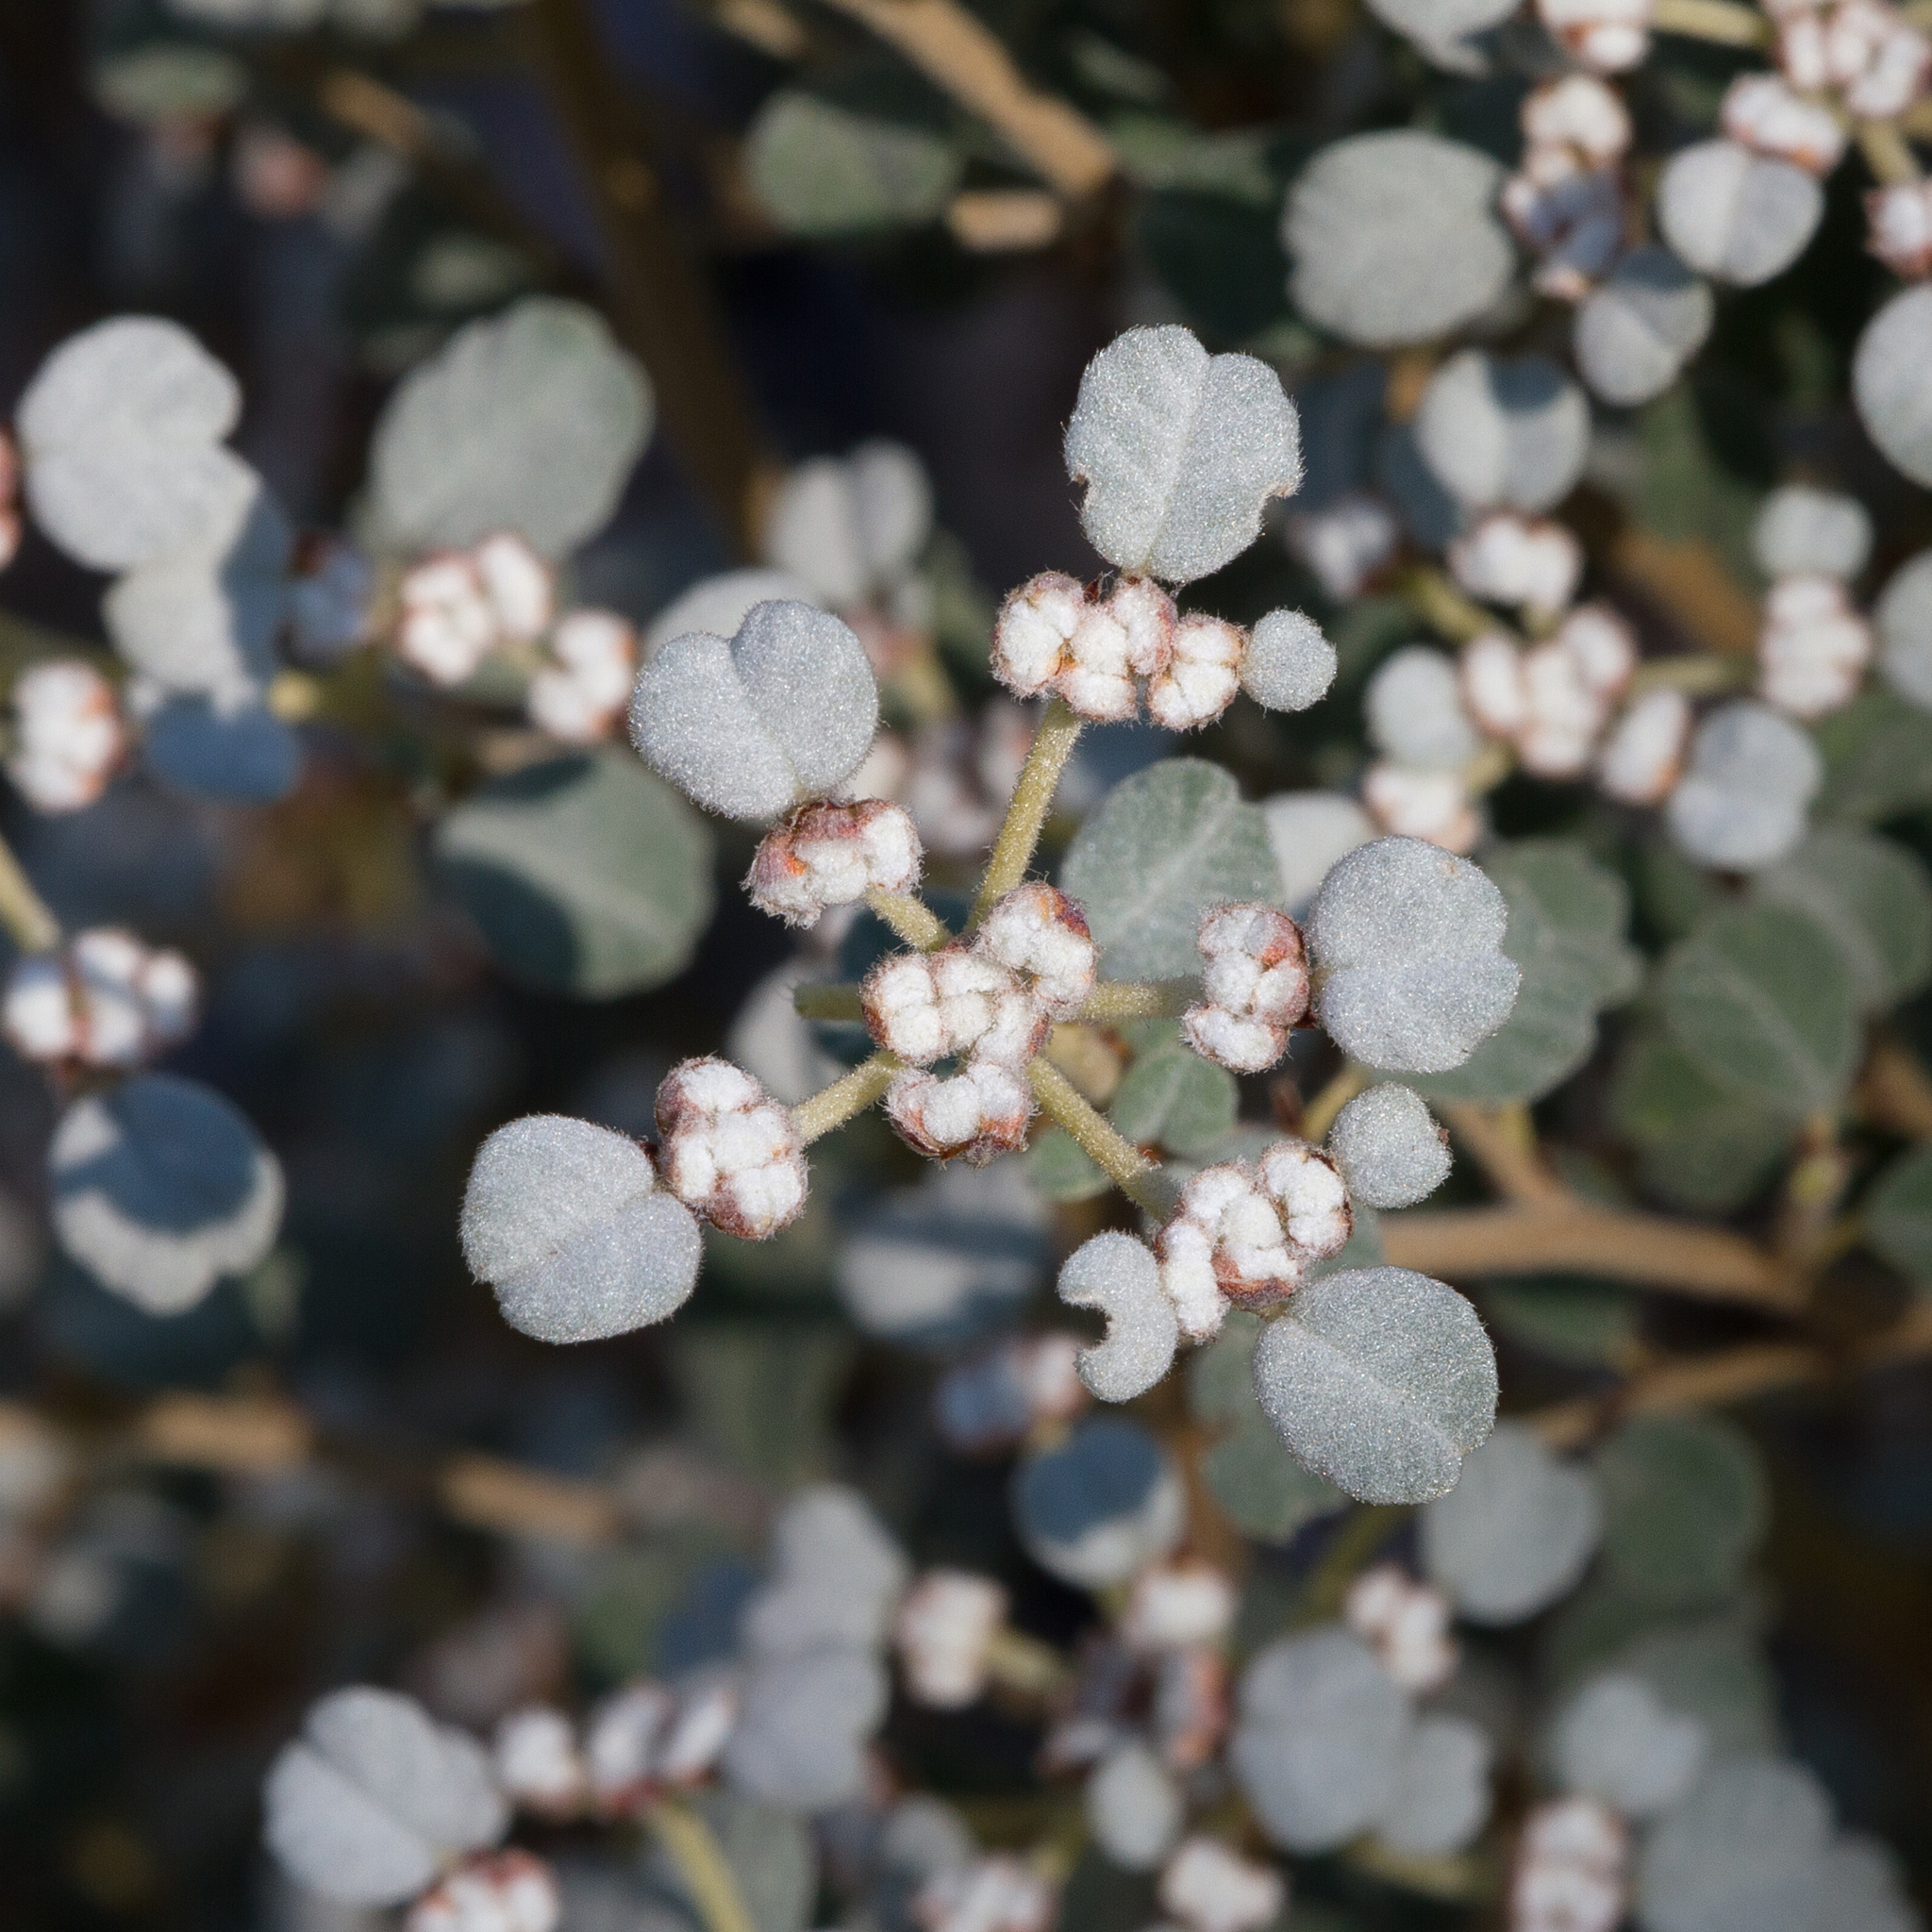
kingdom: Plantae
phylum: Tracheophyta
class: Magnoliopsida
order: Rosales
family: Rhamnaceae
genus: Spyridium
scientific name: Spyridium parvifolium
